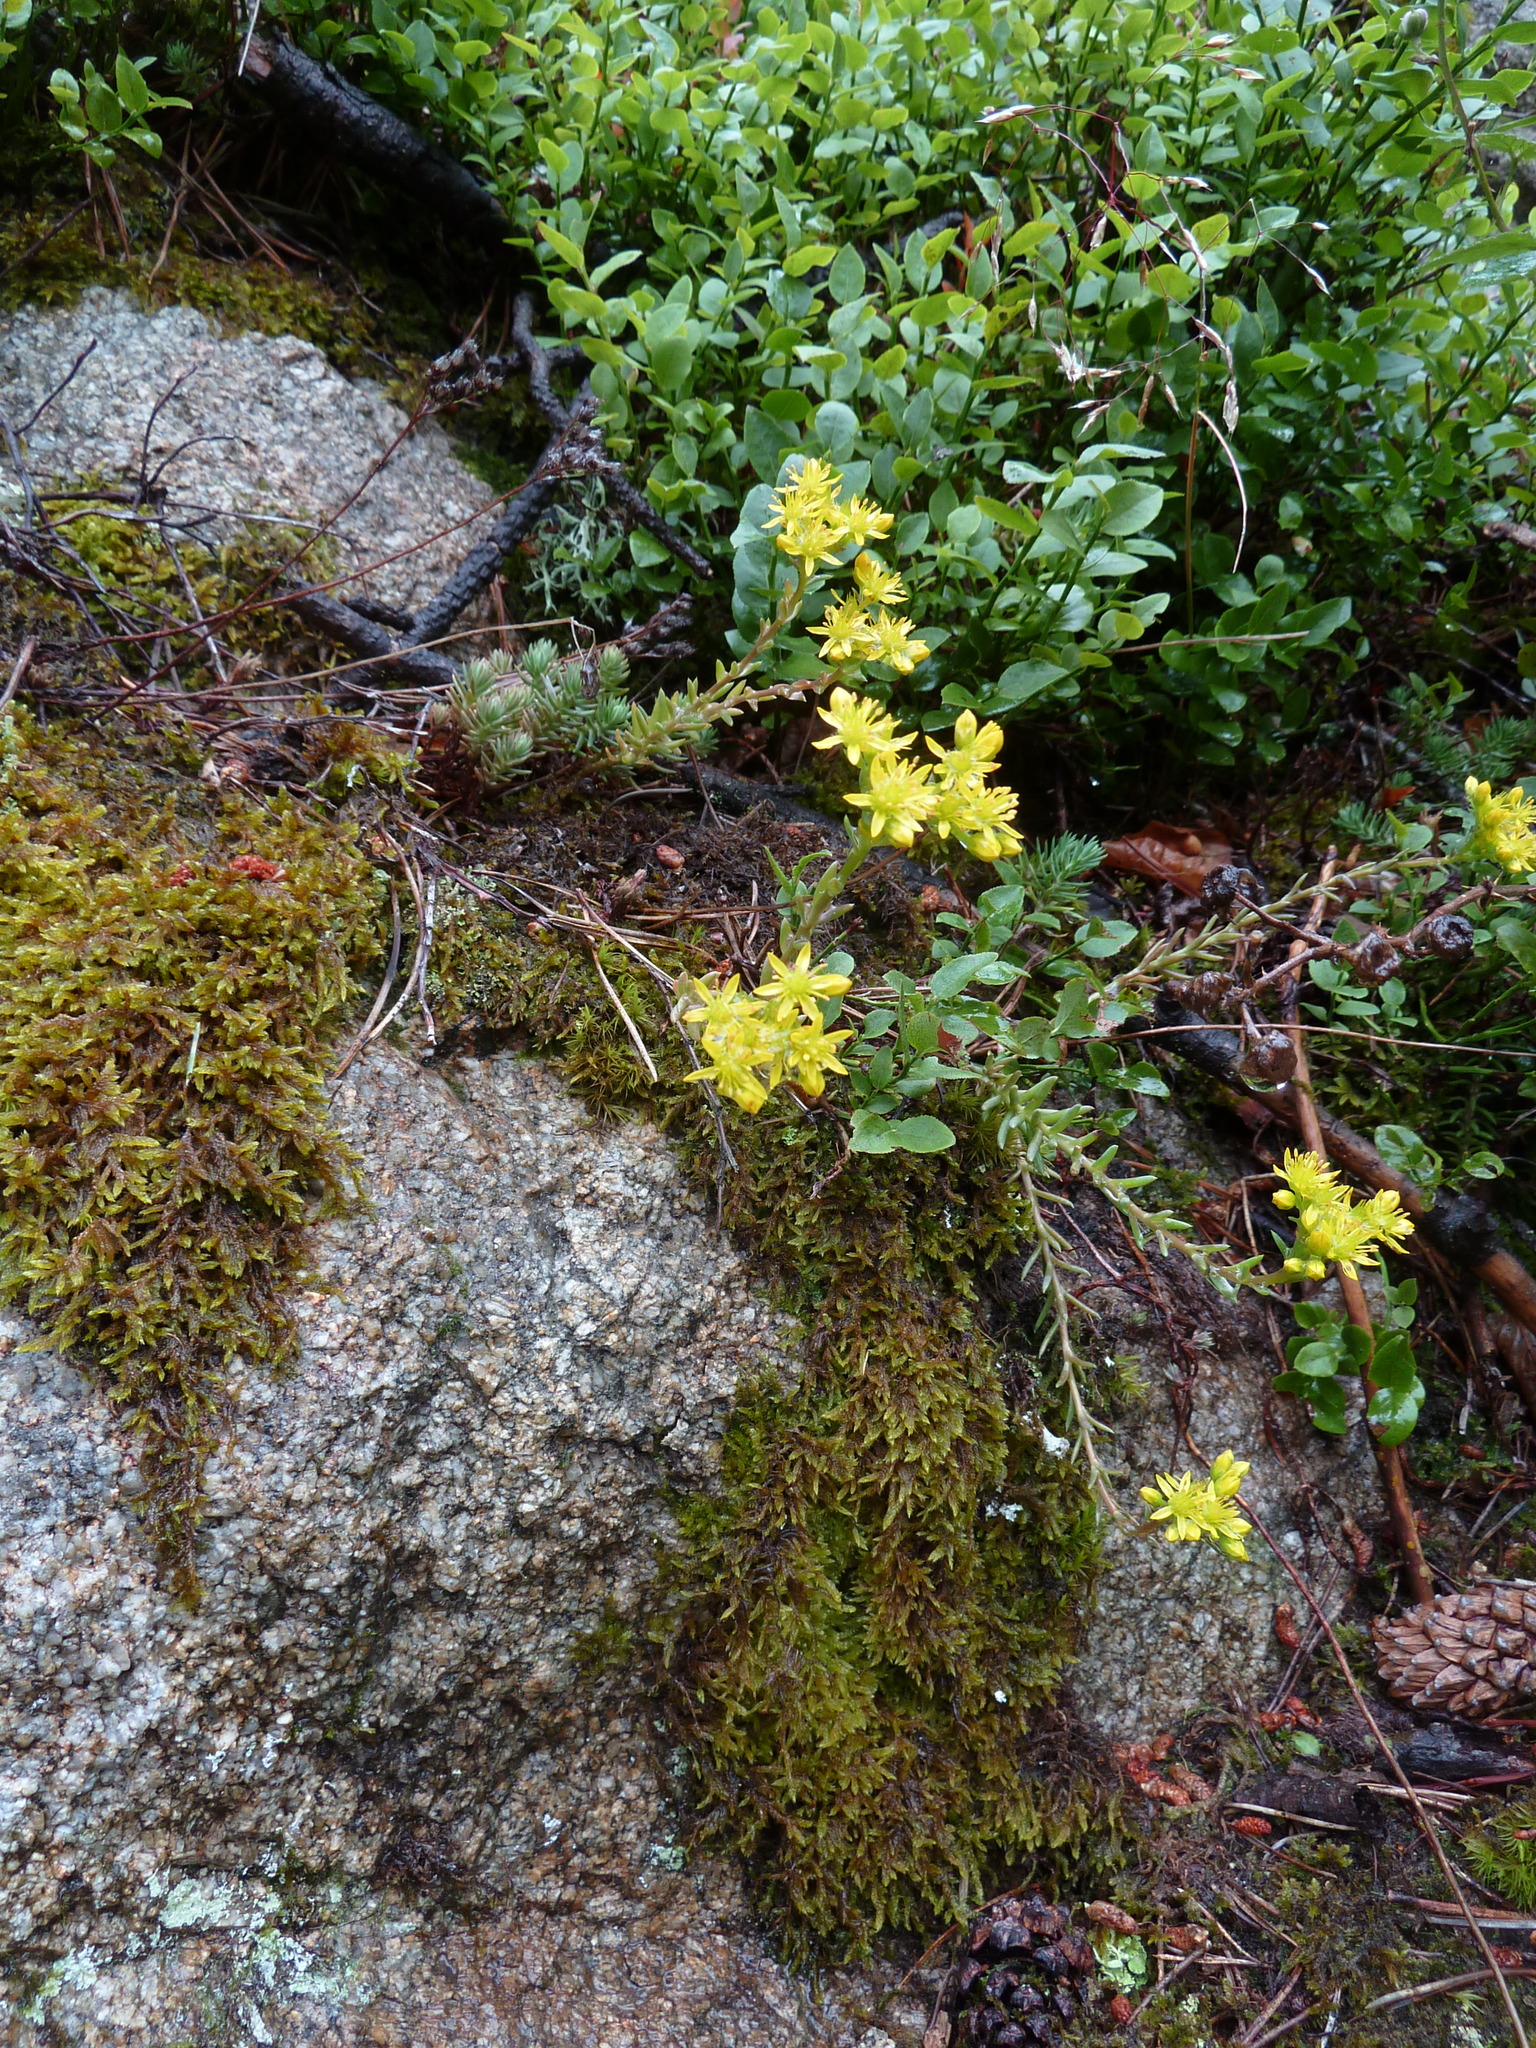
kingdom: Plantae
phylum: Tracheophyta
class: Magnoliopsida
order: Saxifragales
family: Crassulaceae
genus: Petrosedum
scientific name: Petrosedum rupestre
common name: Jenny's stonecrop
